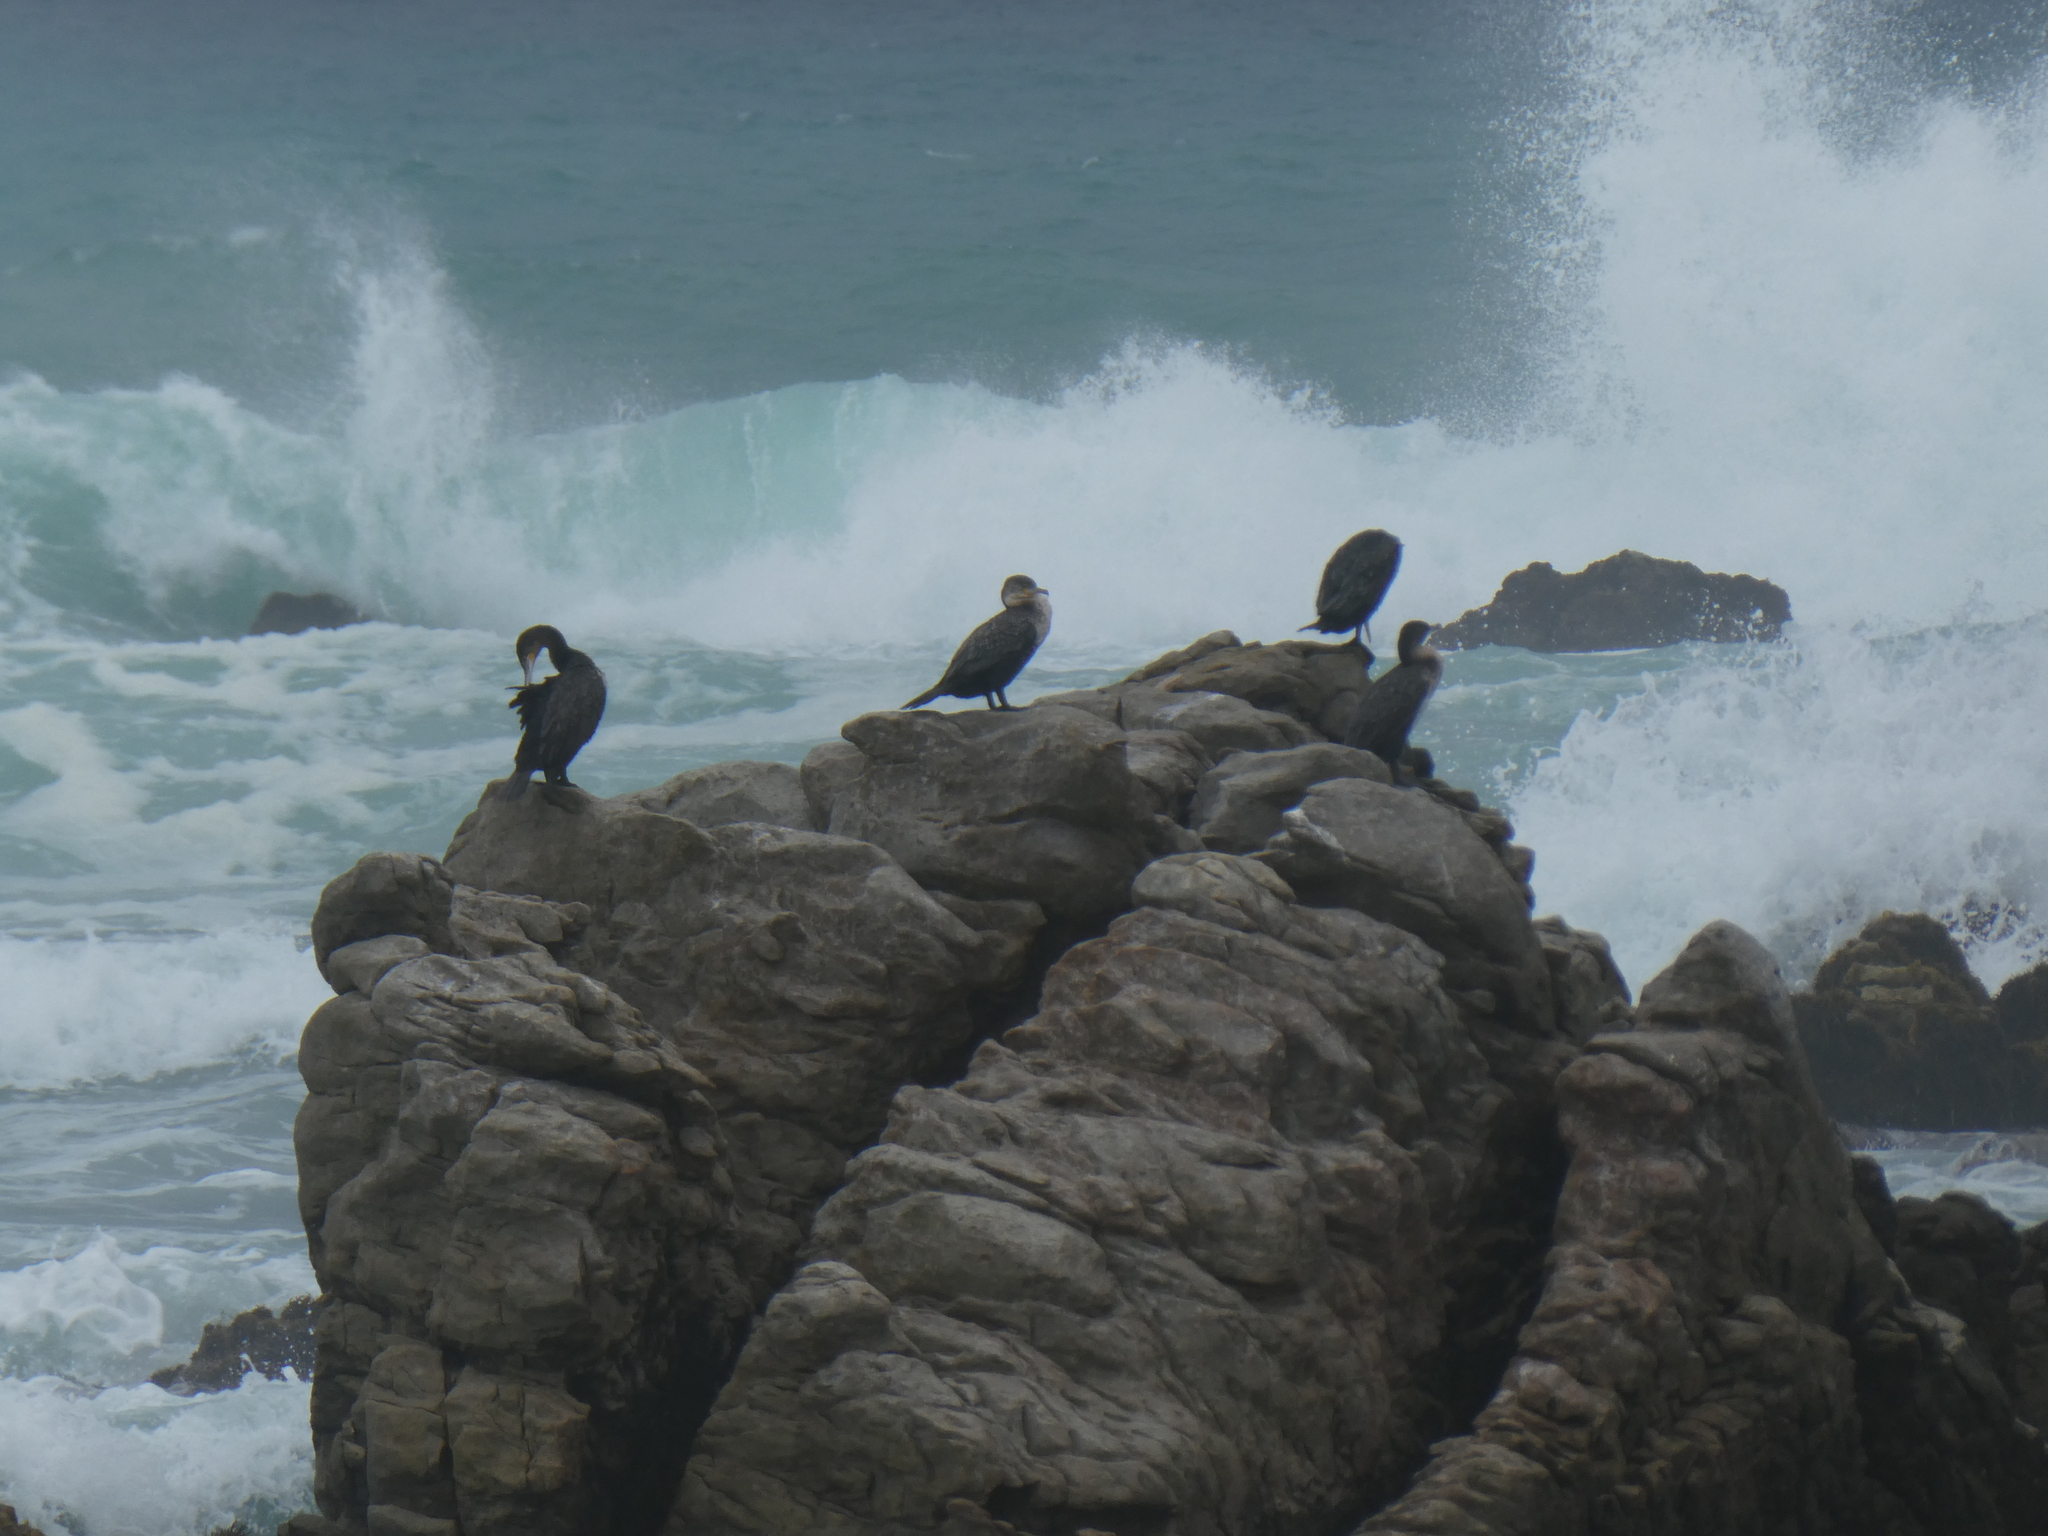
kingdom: Animalia
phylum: Chordata
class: Aves
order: Suliformes
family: Phalacrocoracidae
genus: Phalacrocorax
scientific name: Phalacrocorax carbo
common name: Great cormorant
